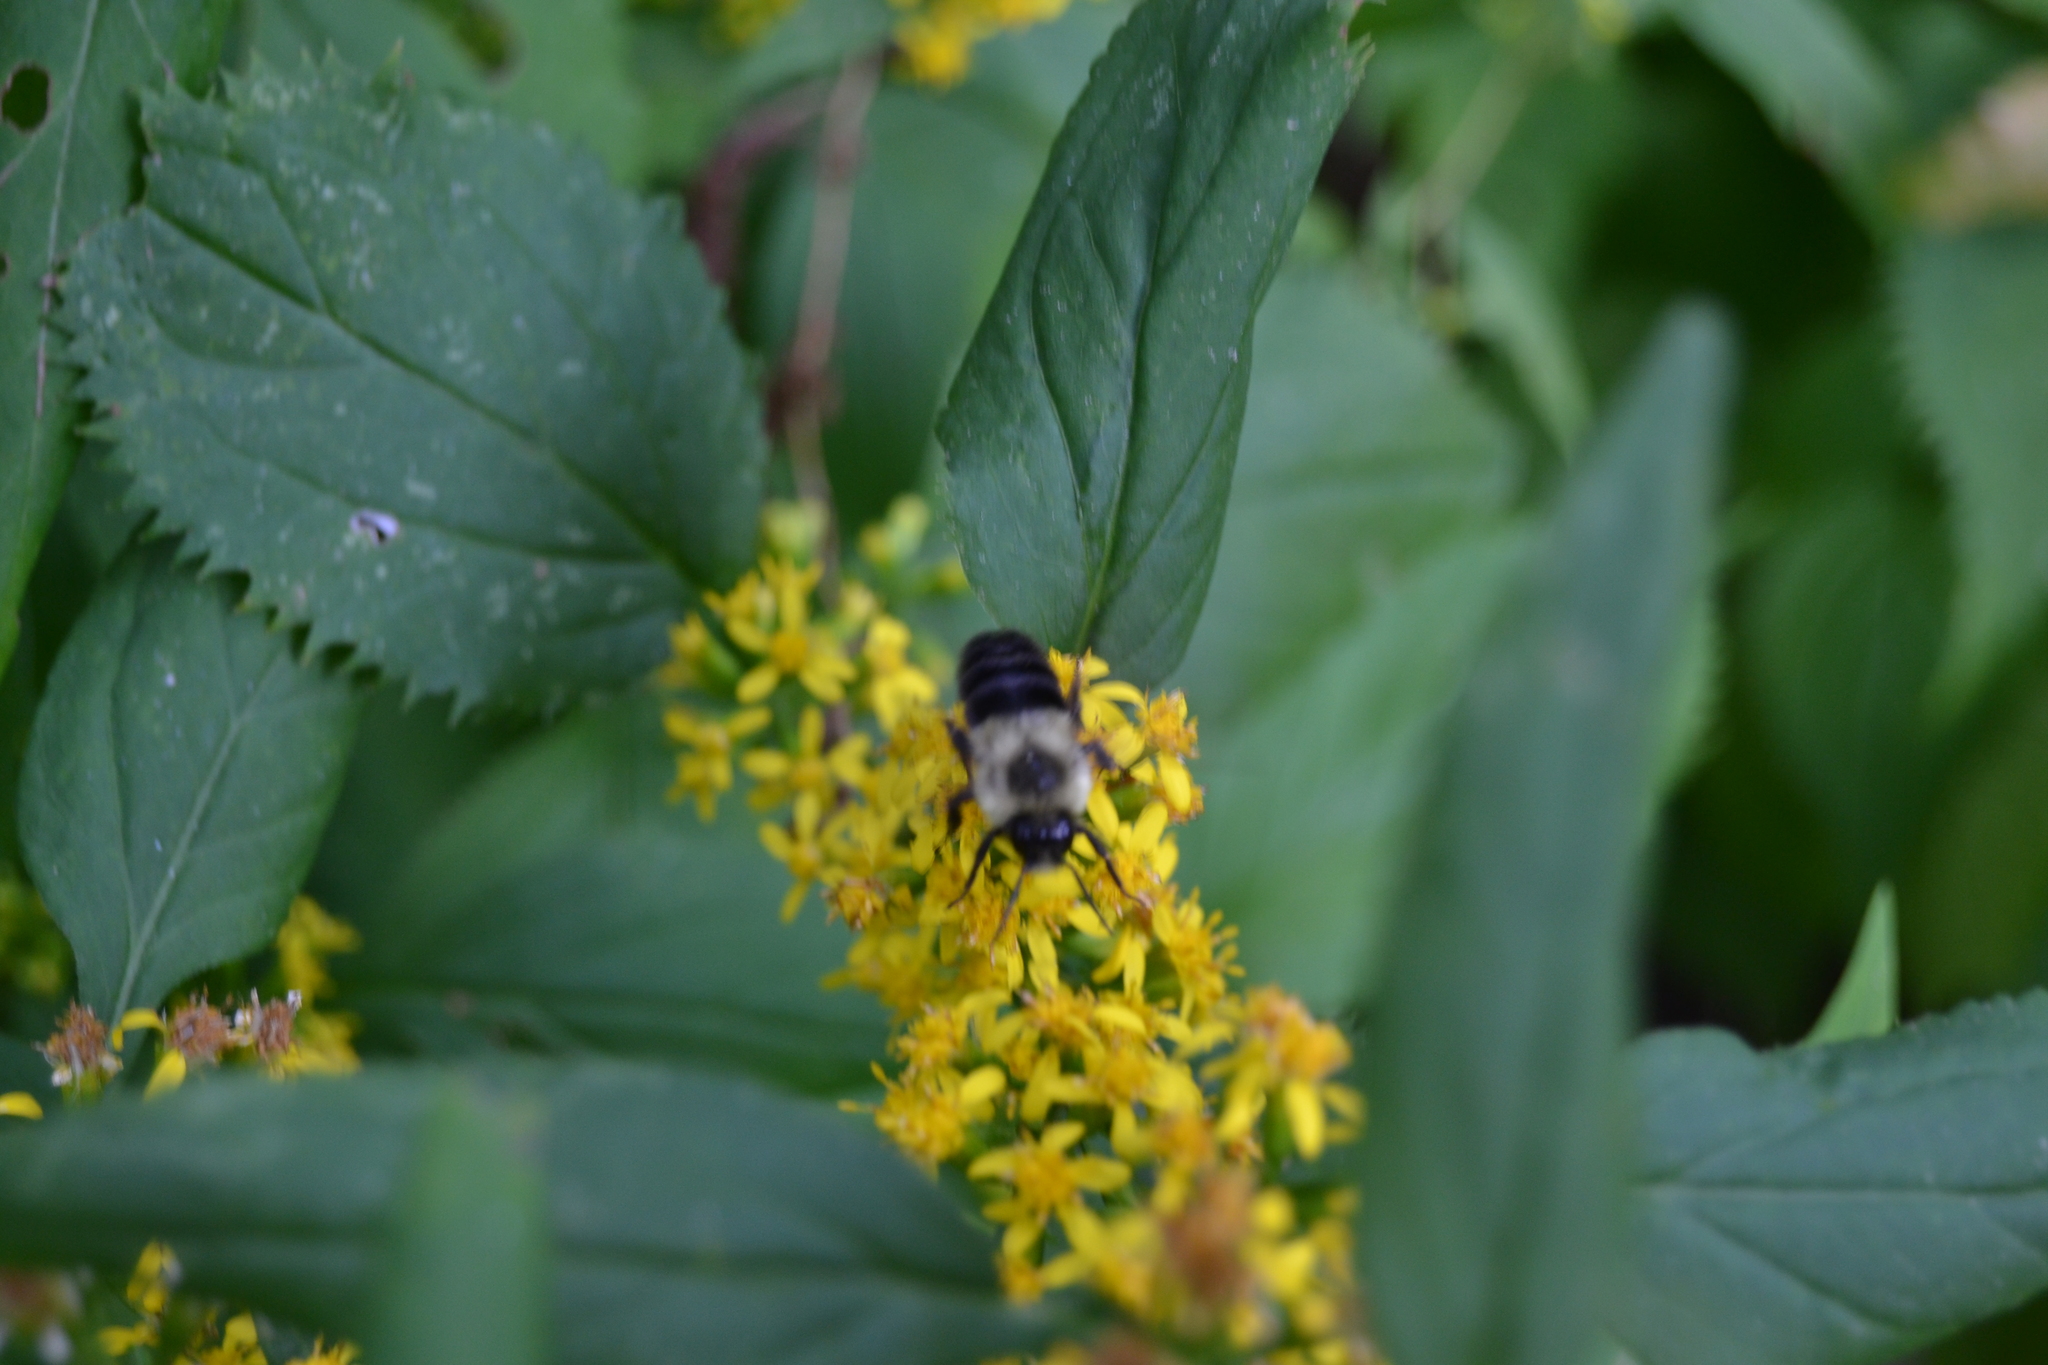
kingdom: Animalia
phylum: Arthropoda
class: Insecta
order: Hymenoptera
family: Apidae
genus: Bombus
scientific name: Bombus impatiens
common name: Common eastern bumble bee
